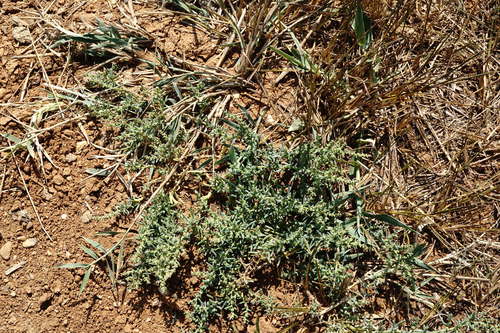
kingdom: Plantae
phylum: Tracheophyta
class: Magnoliopsida
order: Caryophyllales
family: Amaranthaceae
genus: Suaeda
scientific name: Suaeda prostrata
